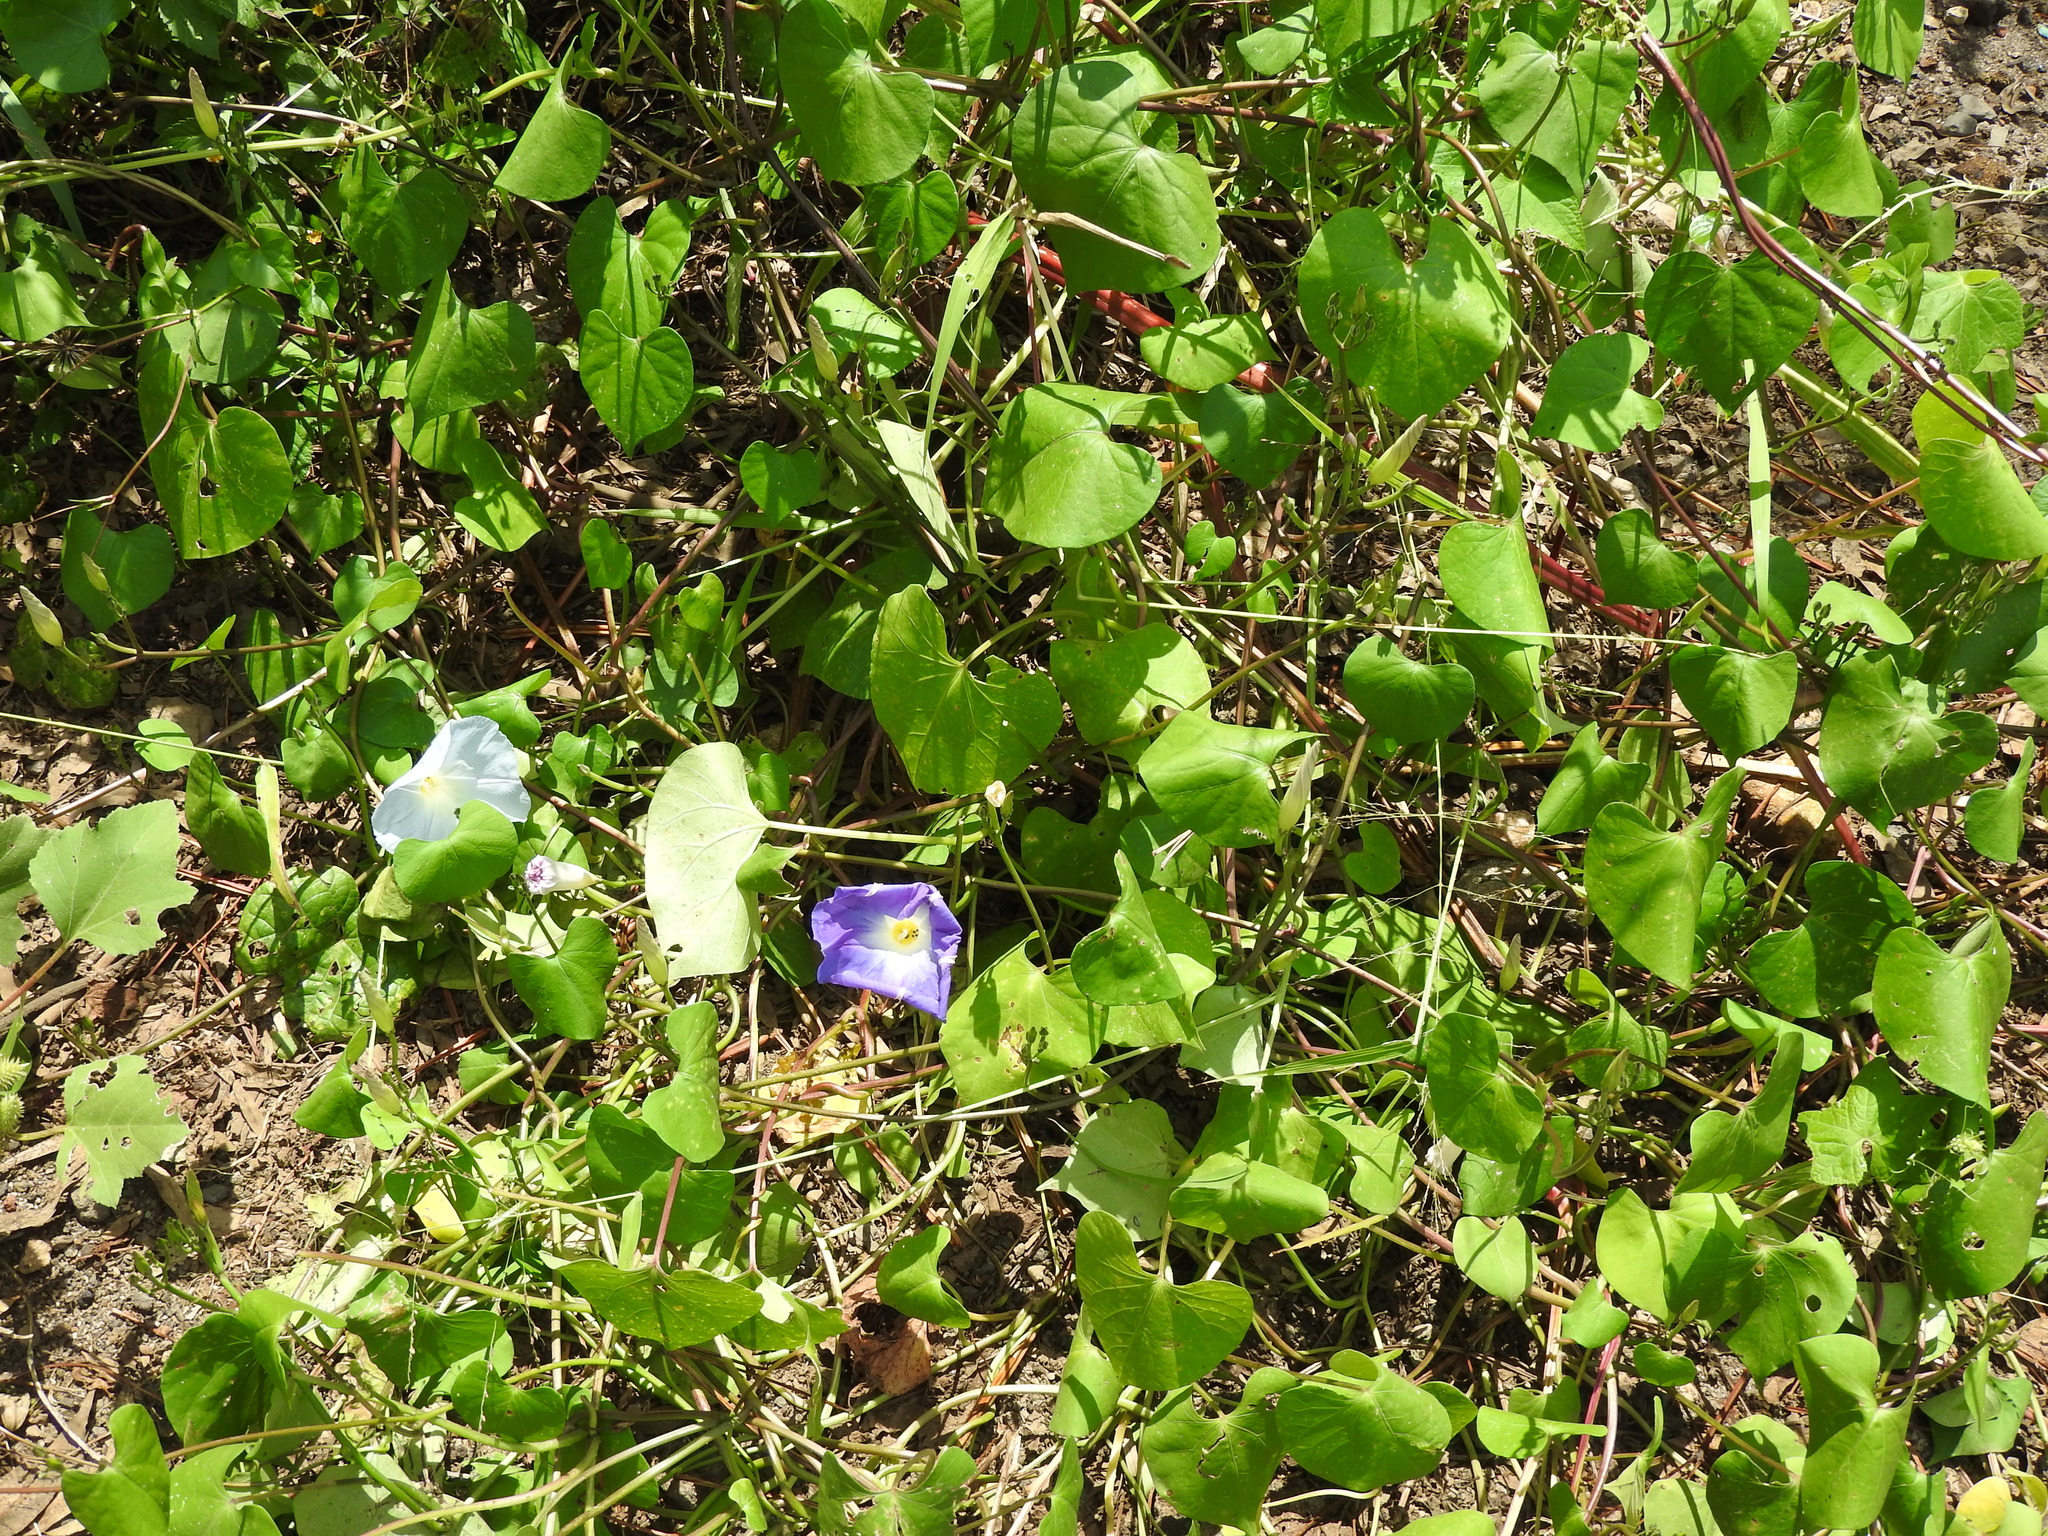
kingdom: Plantae
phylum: Tracheophyta
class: Magnoliopsida
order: Solanales
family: Convolvulaceae
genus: Ipomoea
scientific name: Ipomoea tricolor
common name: Morning-glory
